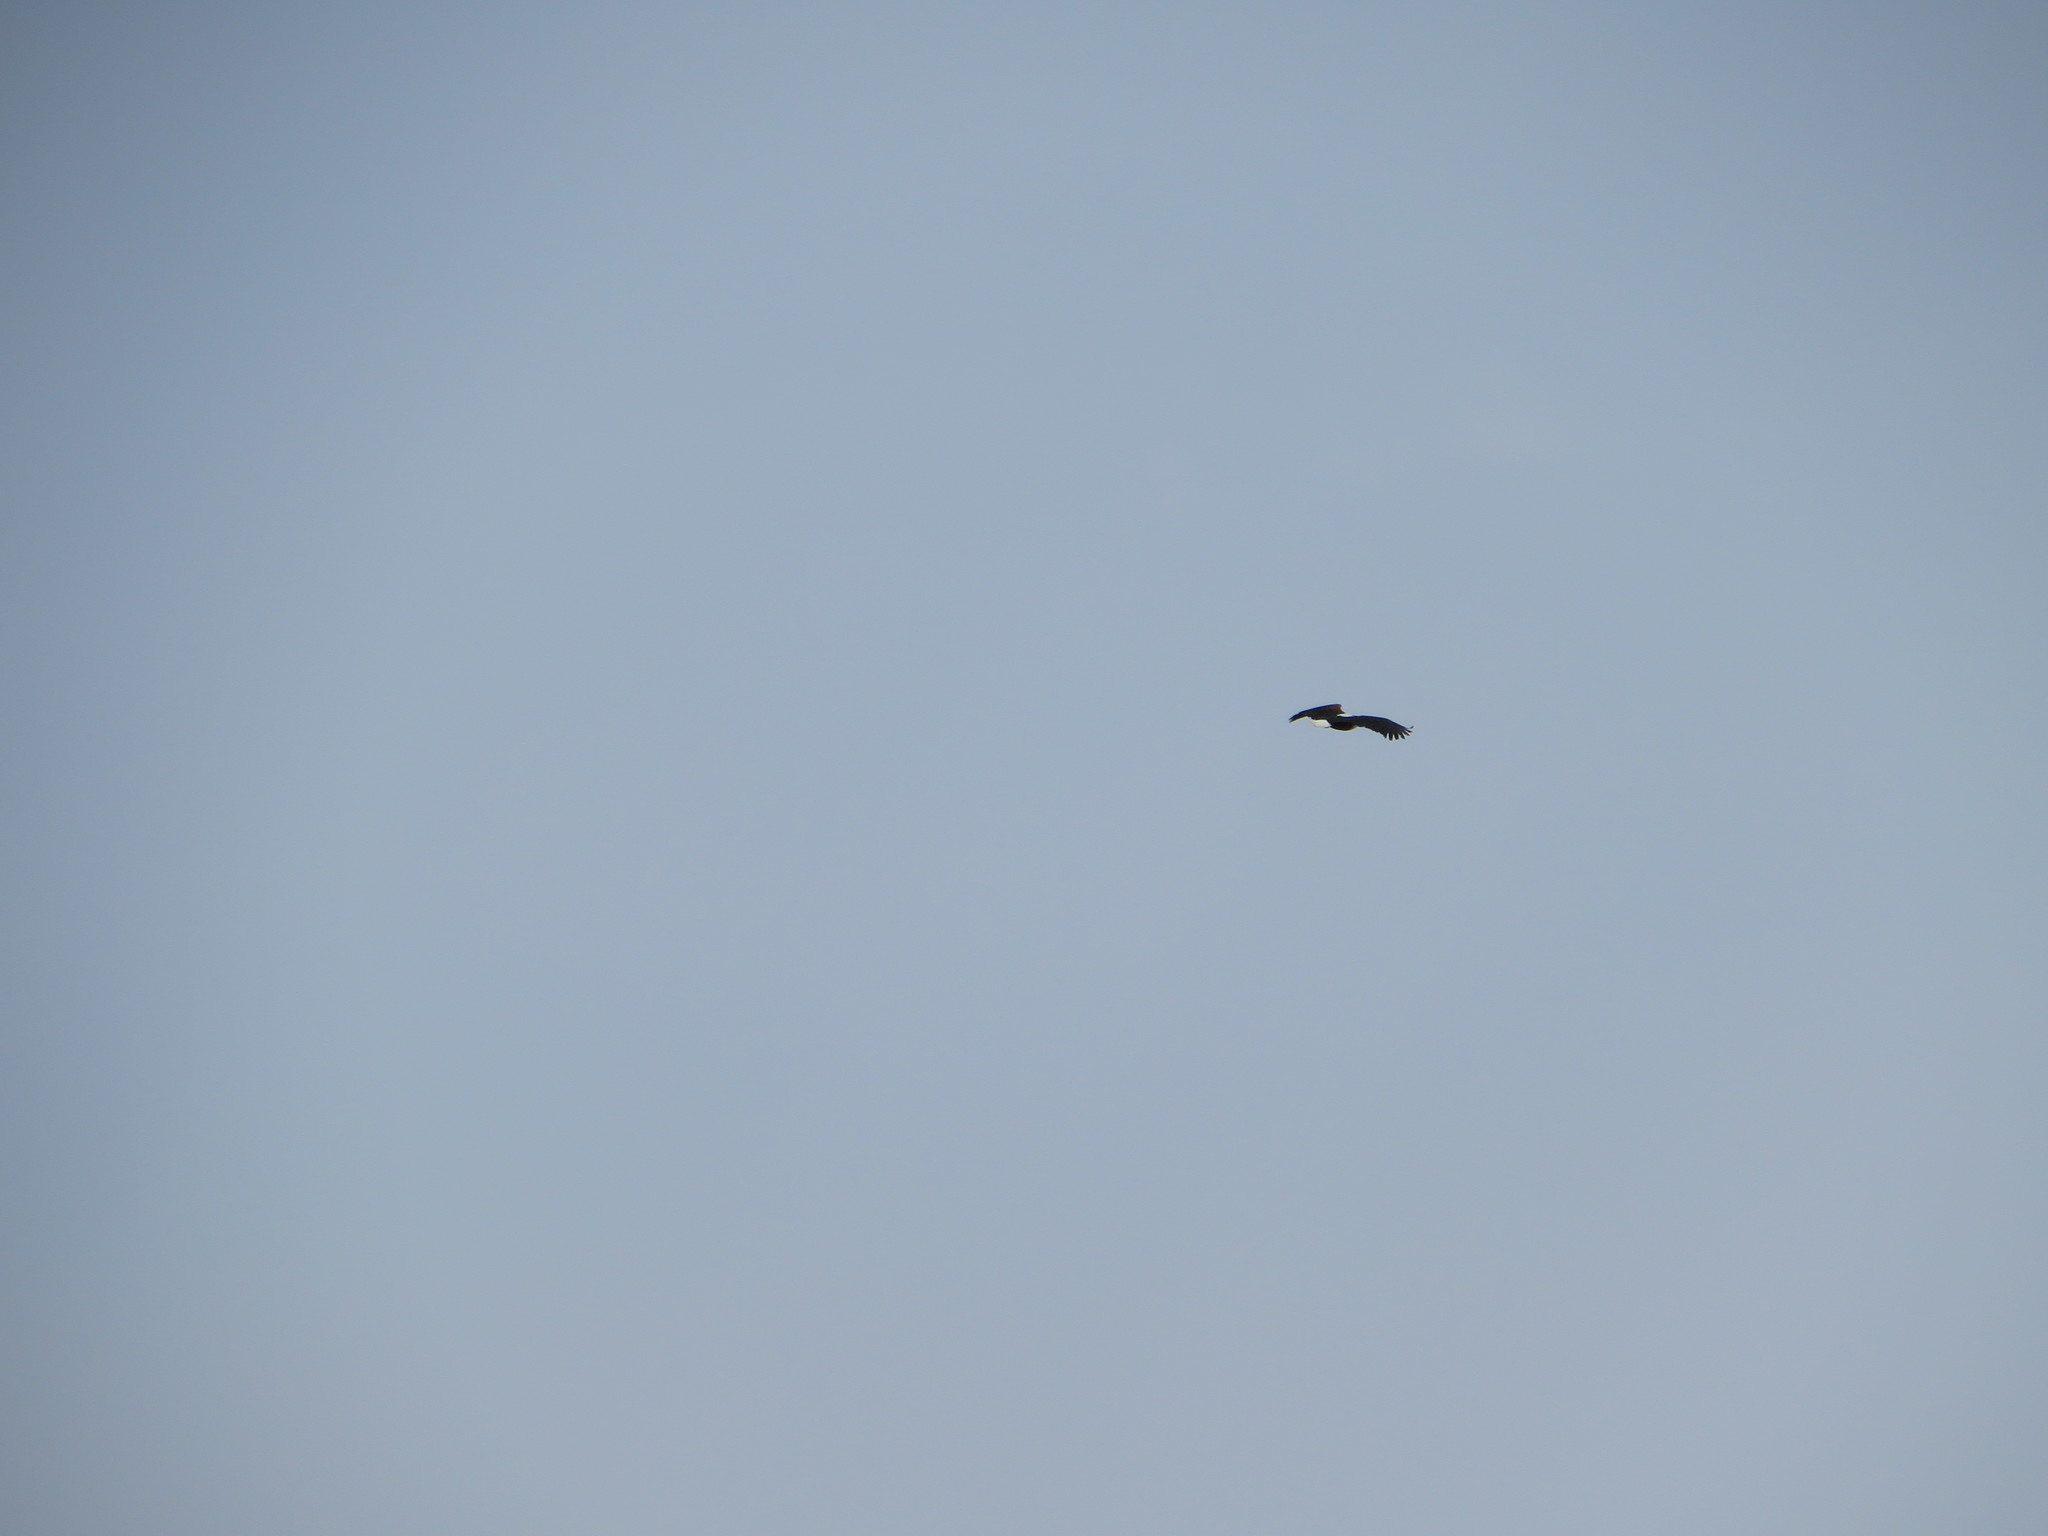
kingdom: Animalia
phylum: Chordata
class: Aves
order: Accipitriformes
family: Accipitridae
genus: Haliaeetus
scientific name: Haliaeetus vocifer
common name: African fish eagle
